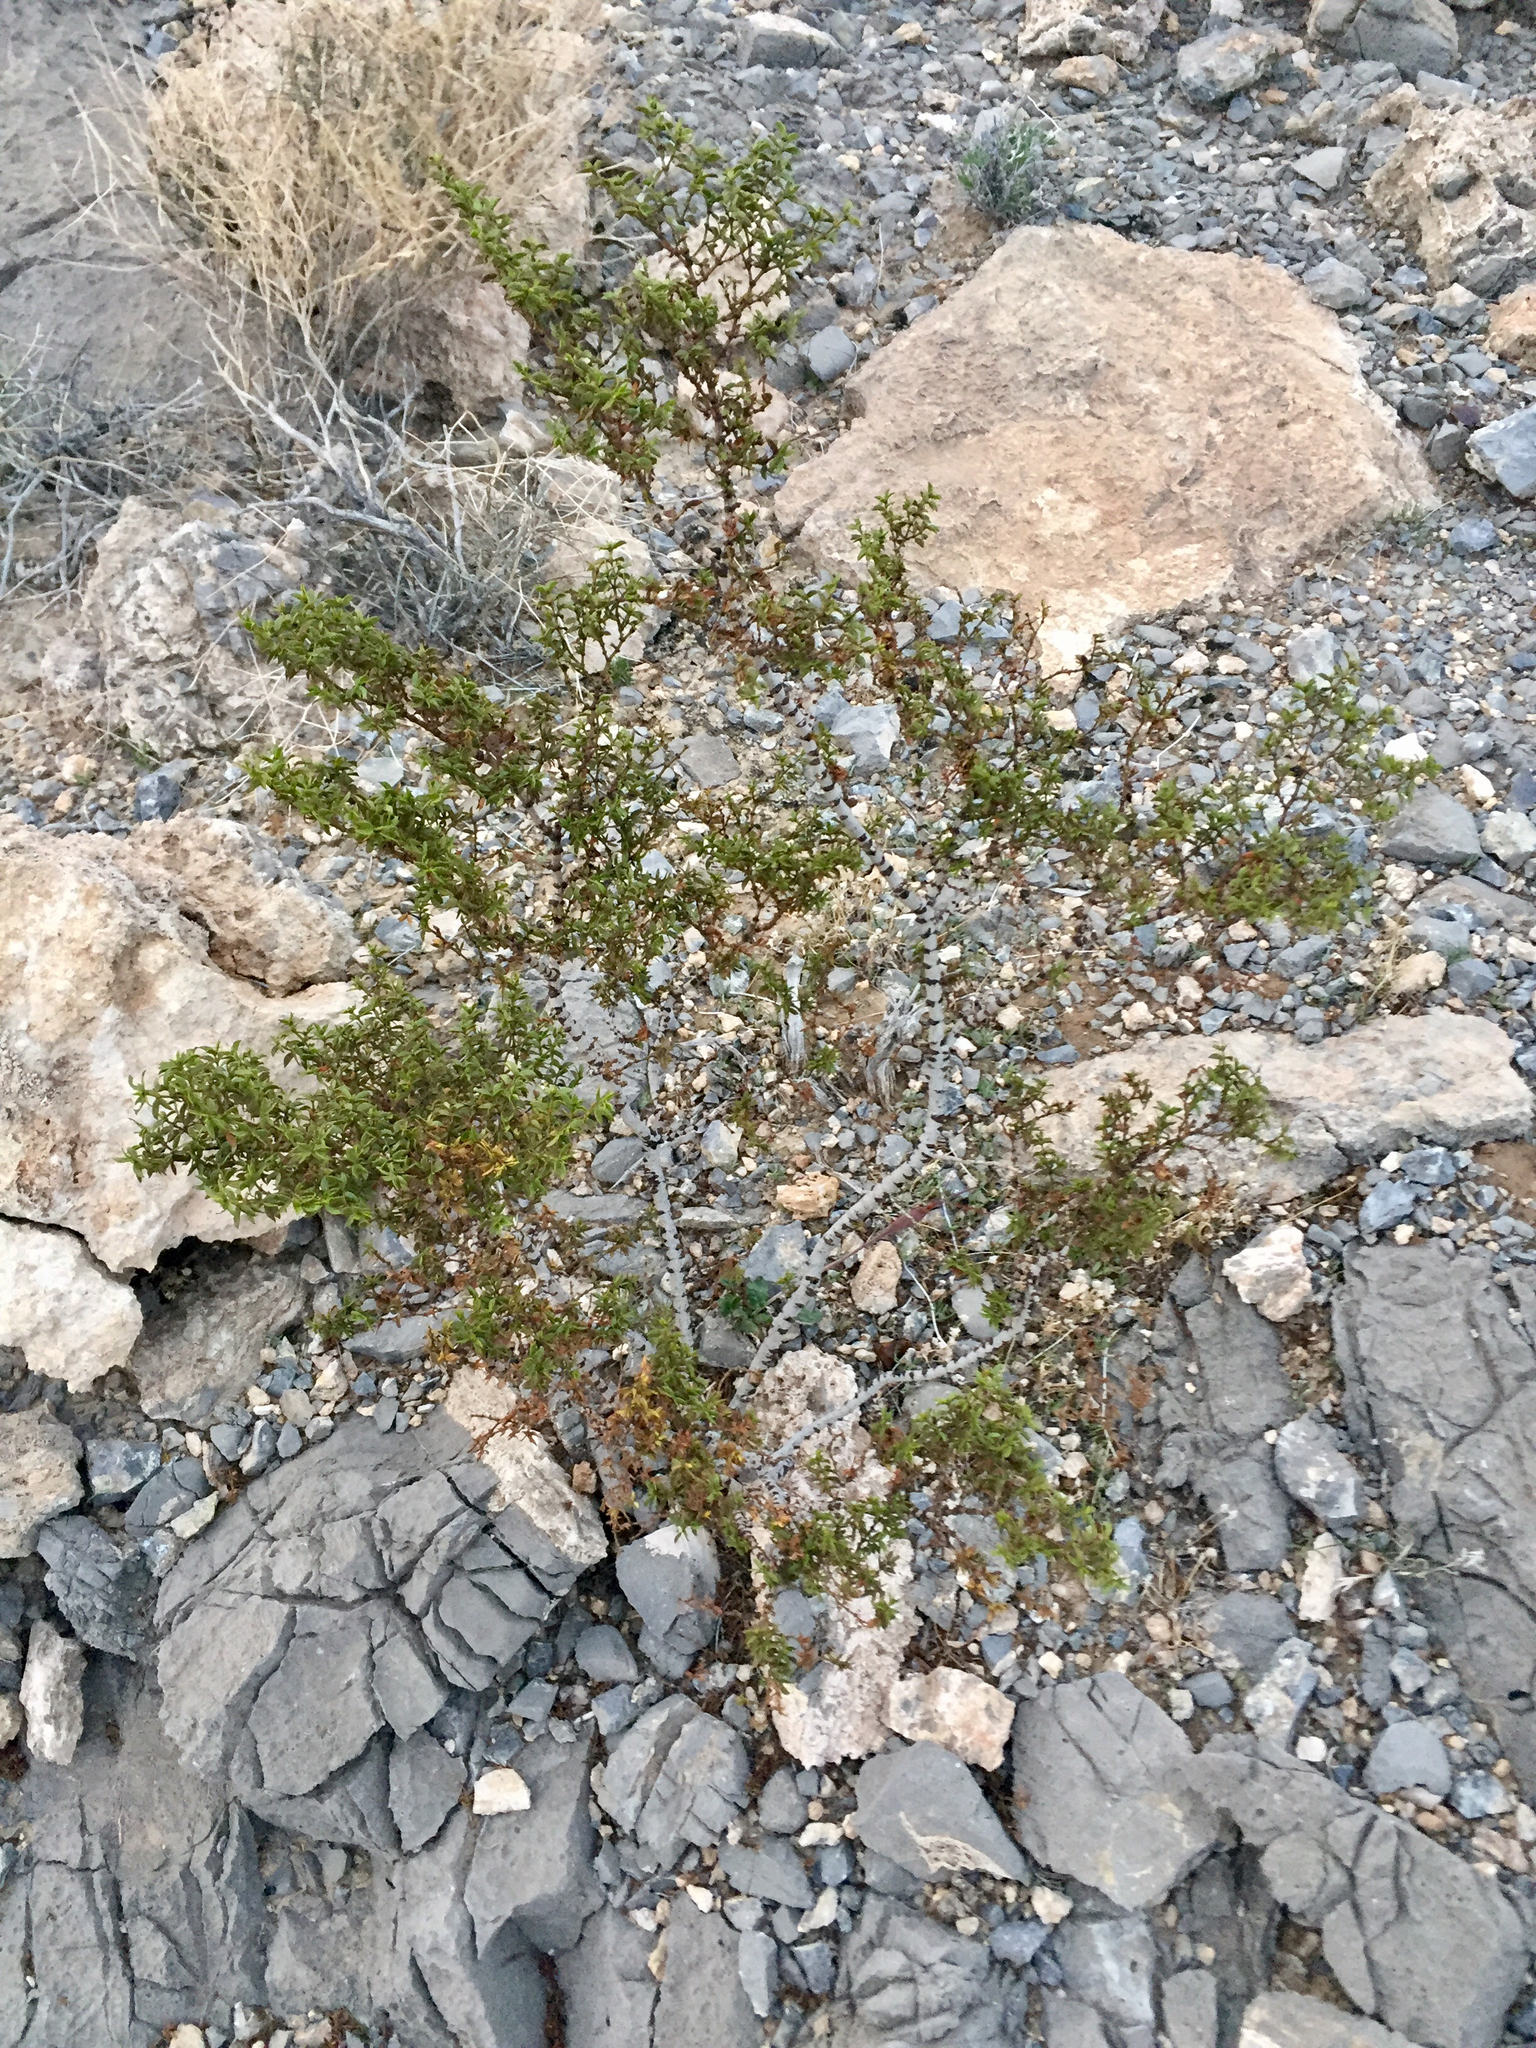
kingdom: Plantae
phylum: Tracheophyta
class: Magnoliopsida
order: Zygophyllales
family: Zygophyllaceae
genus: Larrea
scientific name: Larrea tridentata
